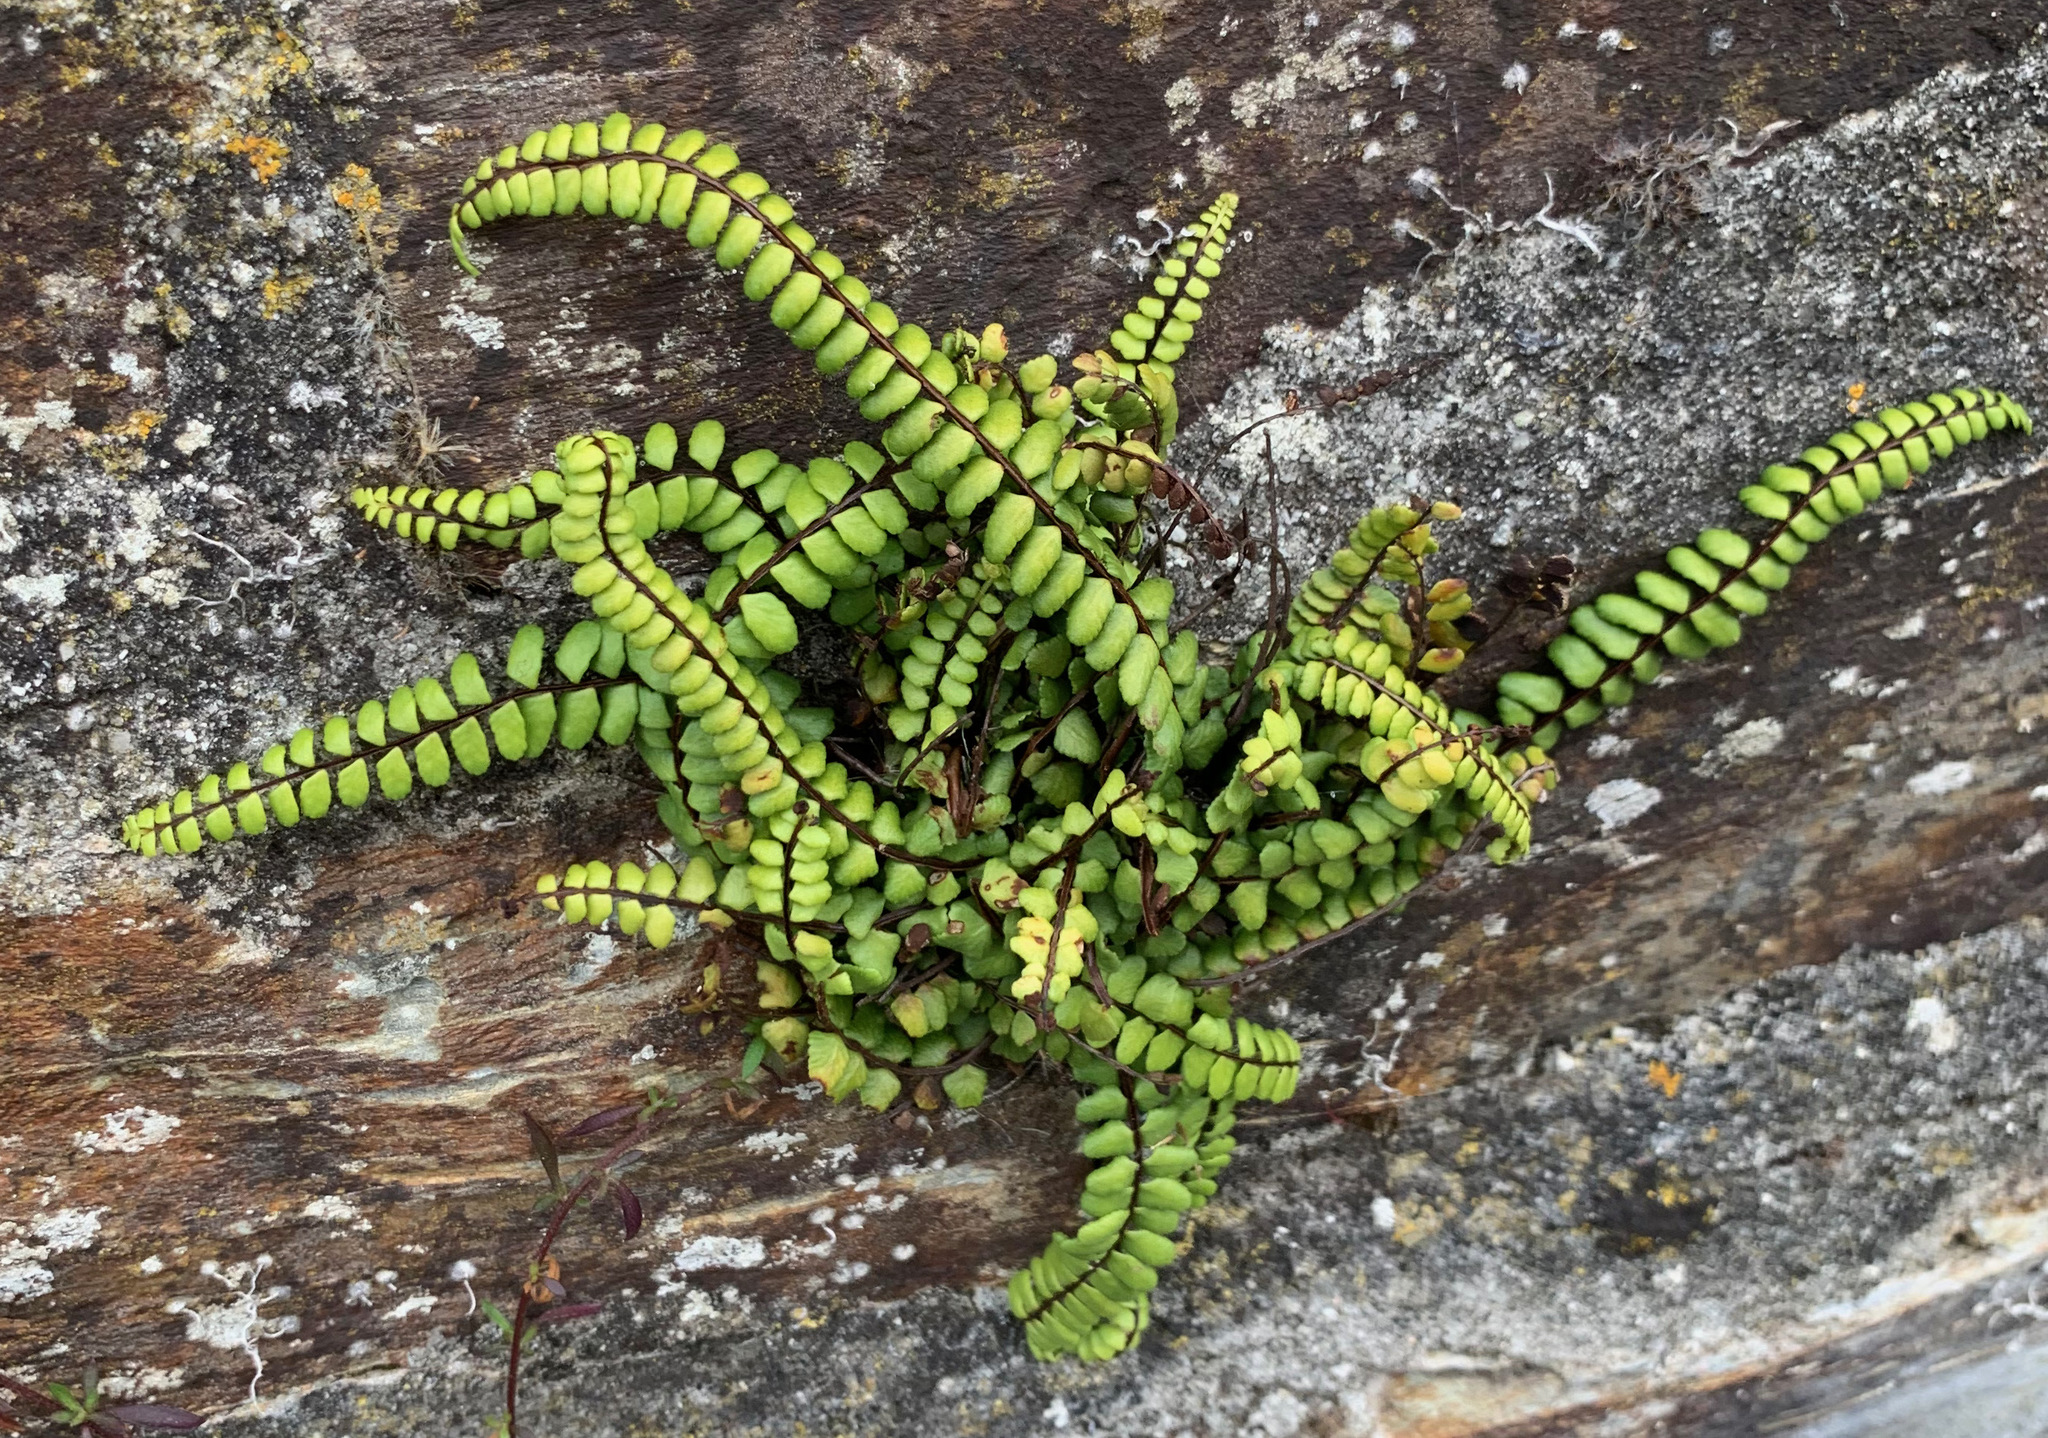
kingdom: Plantae
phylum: Tracheophyta
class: Polypodiopsida
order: Polypodiales
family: Aspleniaceae
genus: Asplenium
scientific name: Asplenium trichomanes
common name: Maidenhair spleenwort
